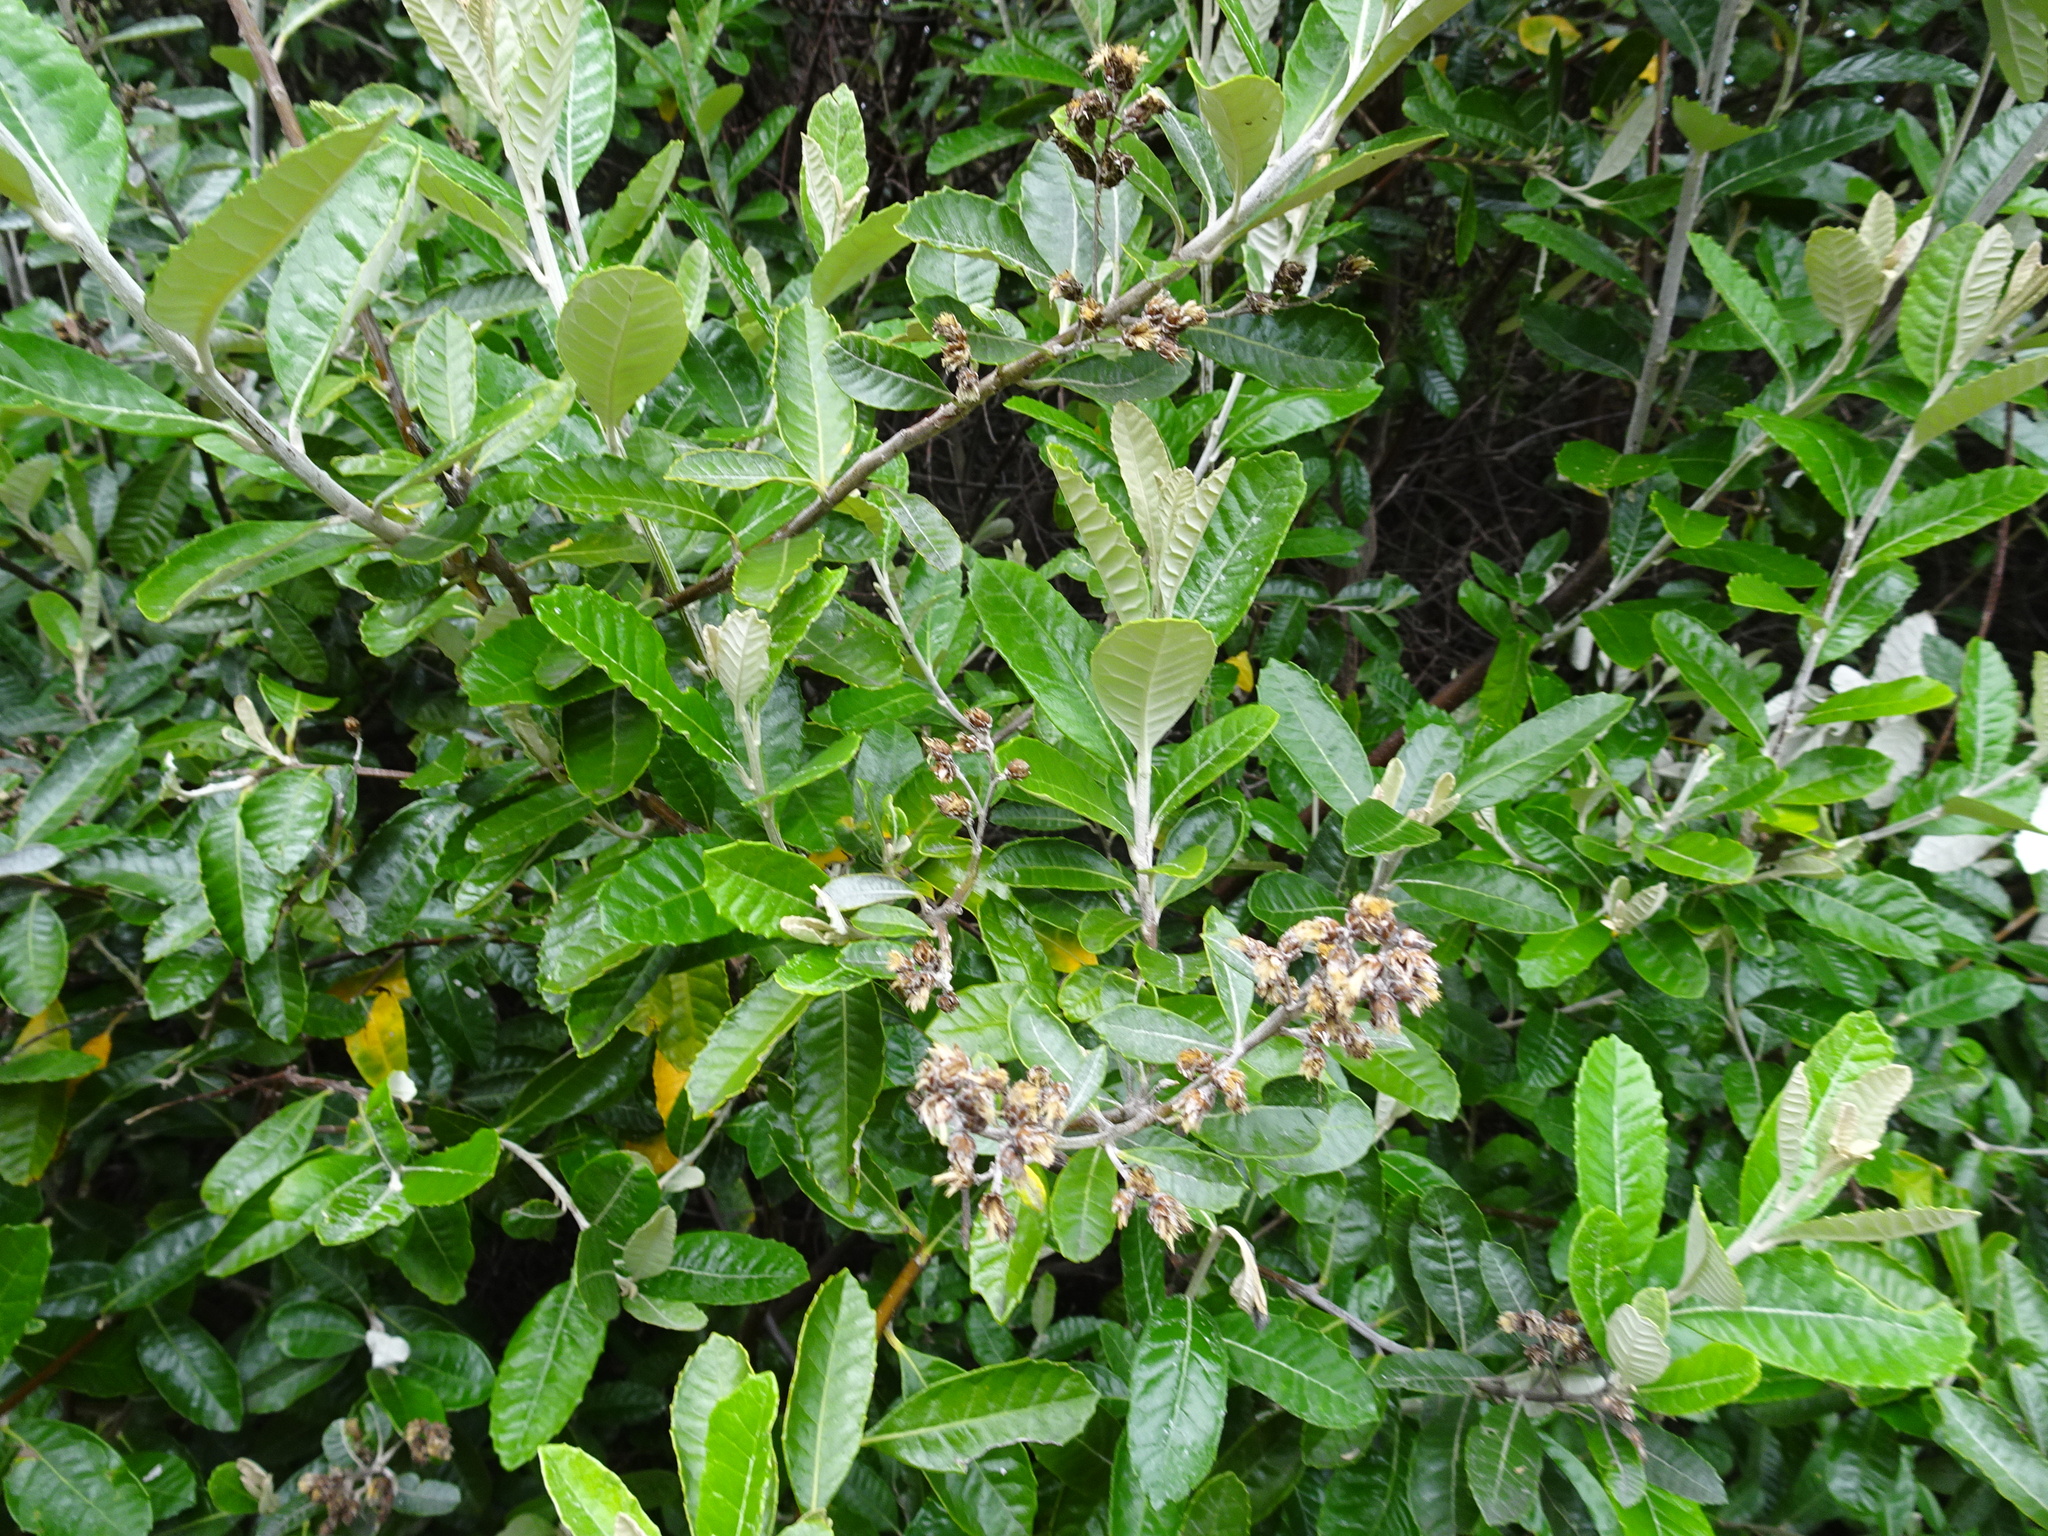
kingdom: Plantae
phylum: Tracheophyta
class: Magnoliopsida
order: Asterales
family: Asteraceae
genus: Brachylaena
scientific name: Brachylaena discolor
